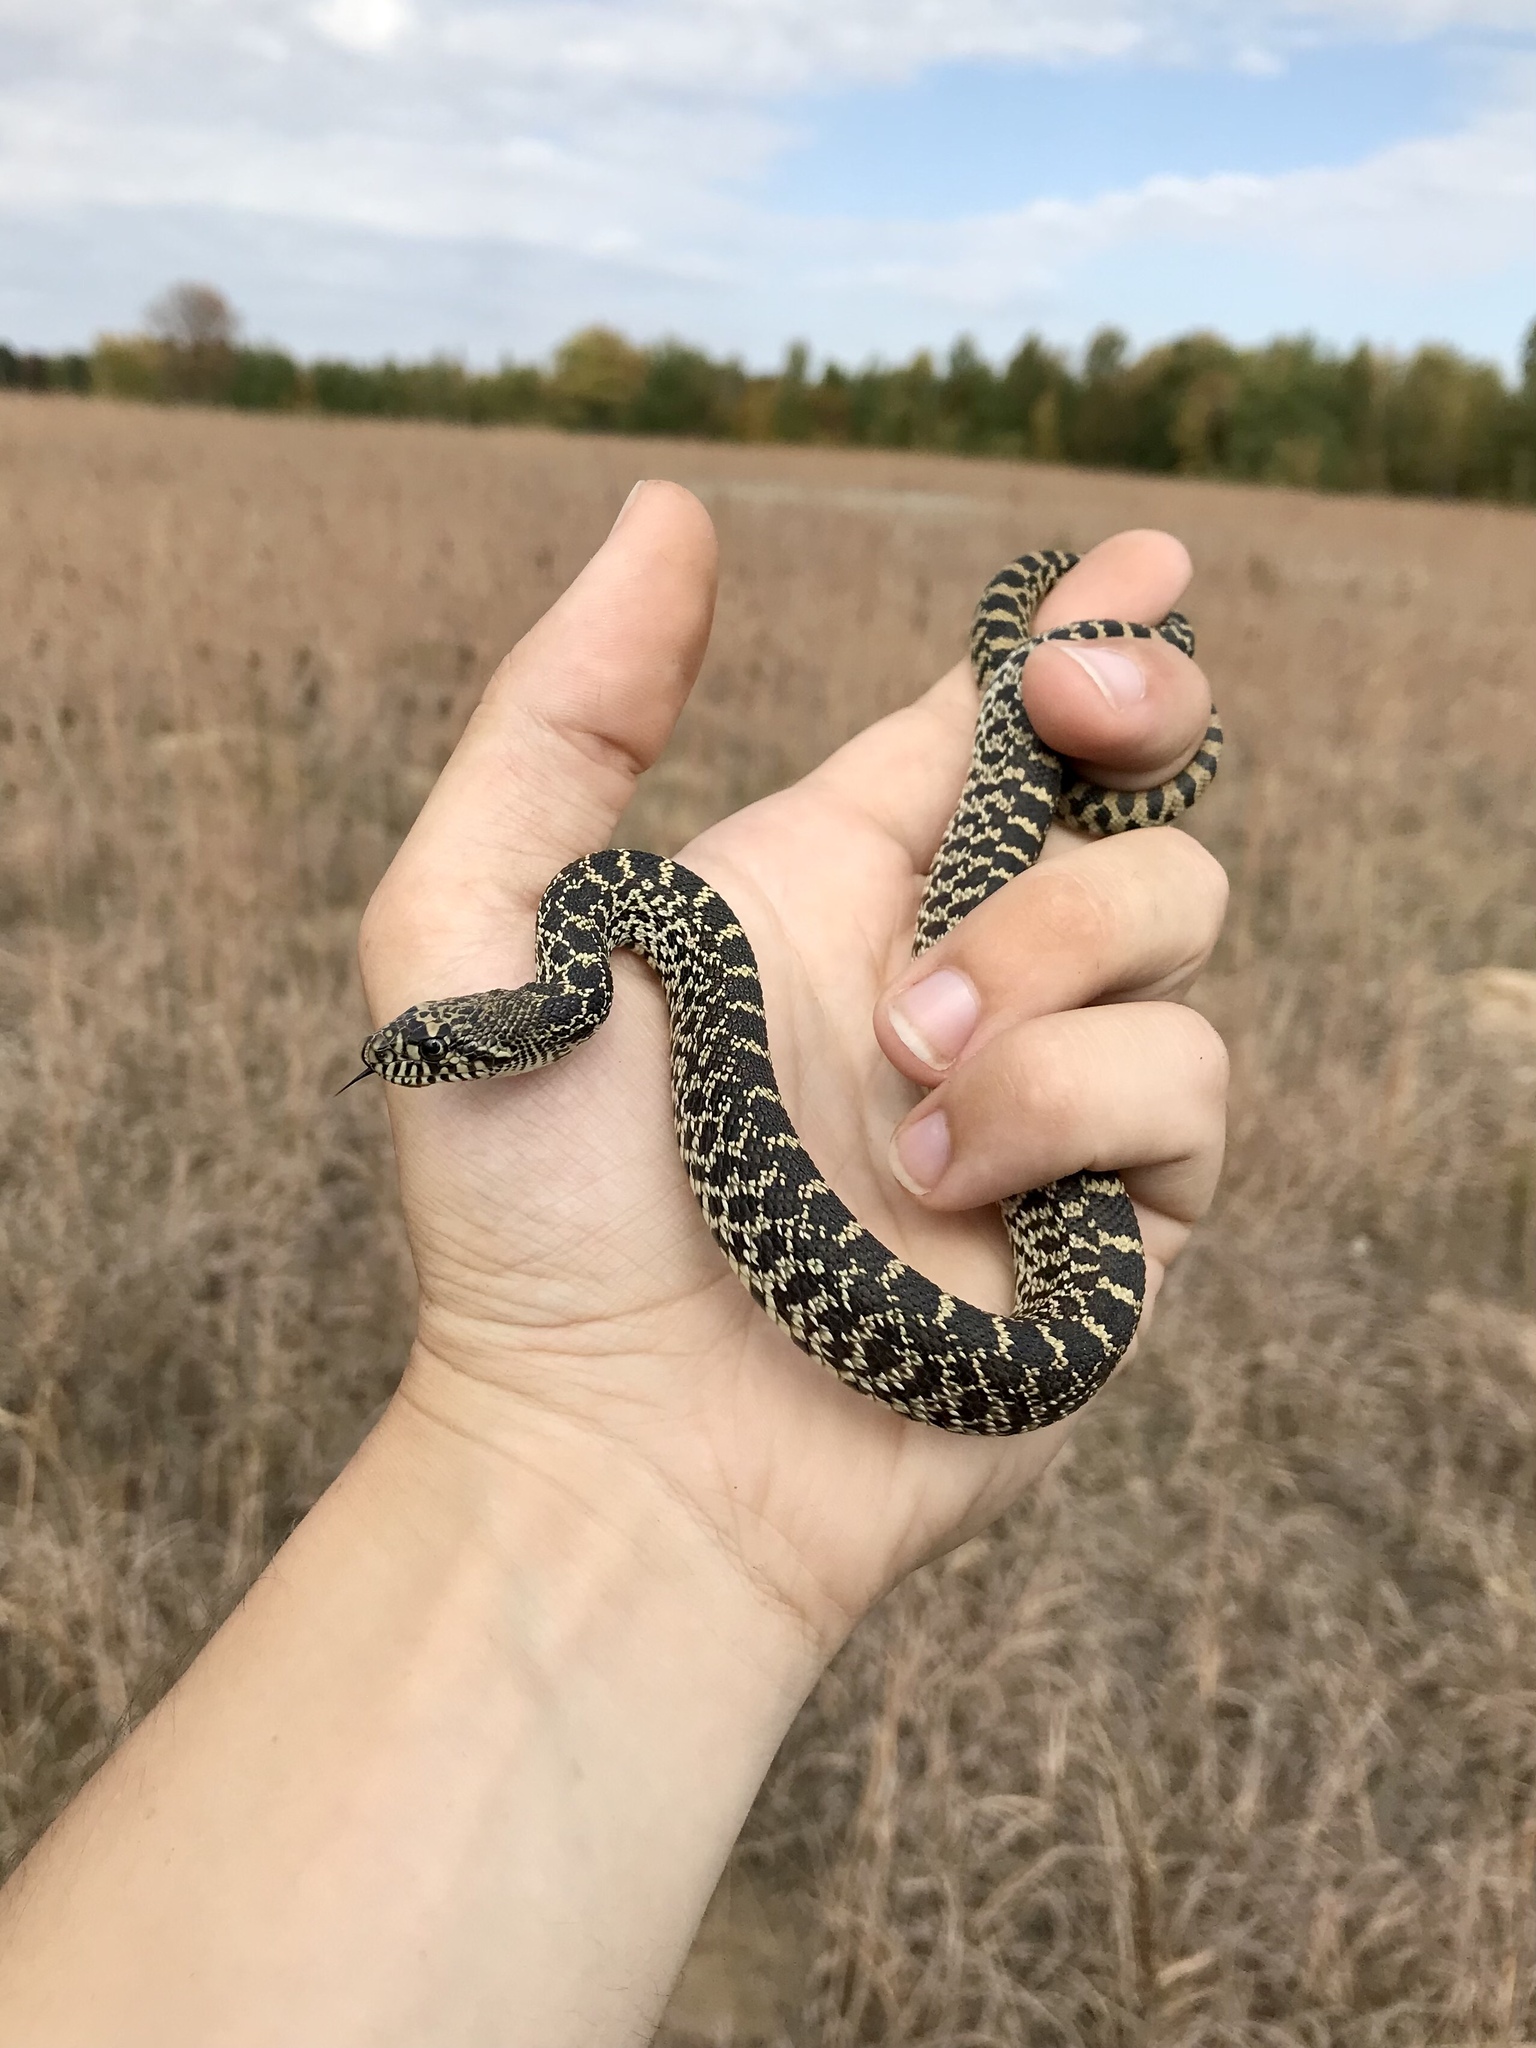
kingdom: Animalia
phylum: Chordata
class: Squamata
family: Colubridae
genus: Pituophis
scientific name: Pituophis catenifer
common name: Gopher snake
